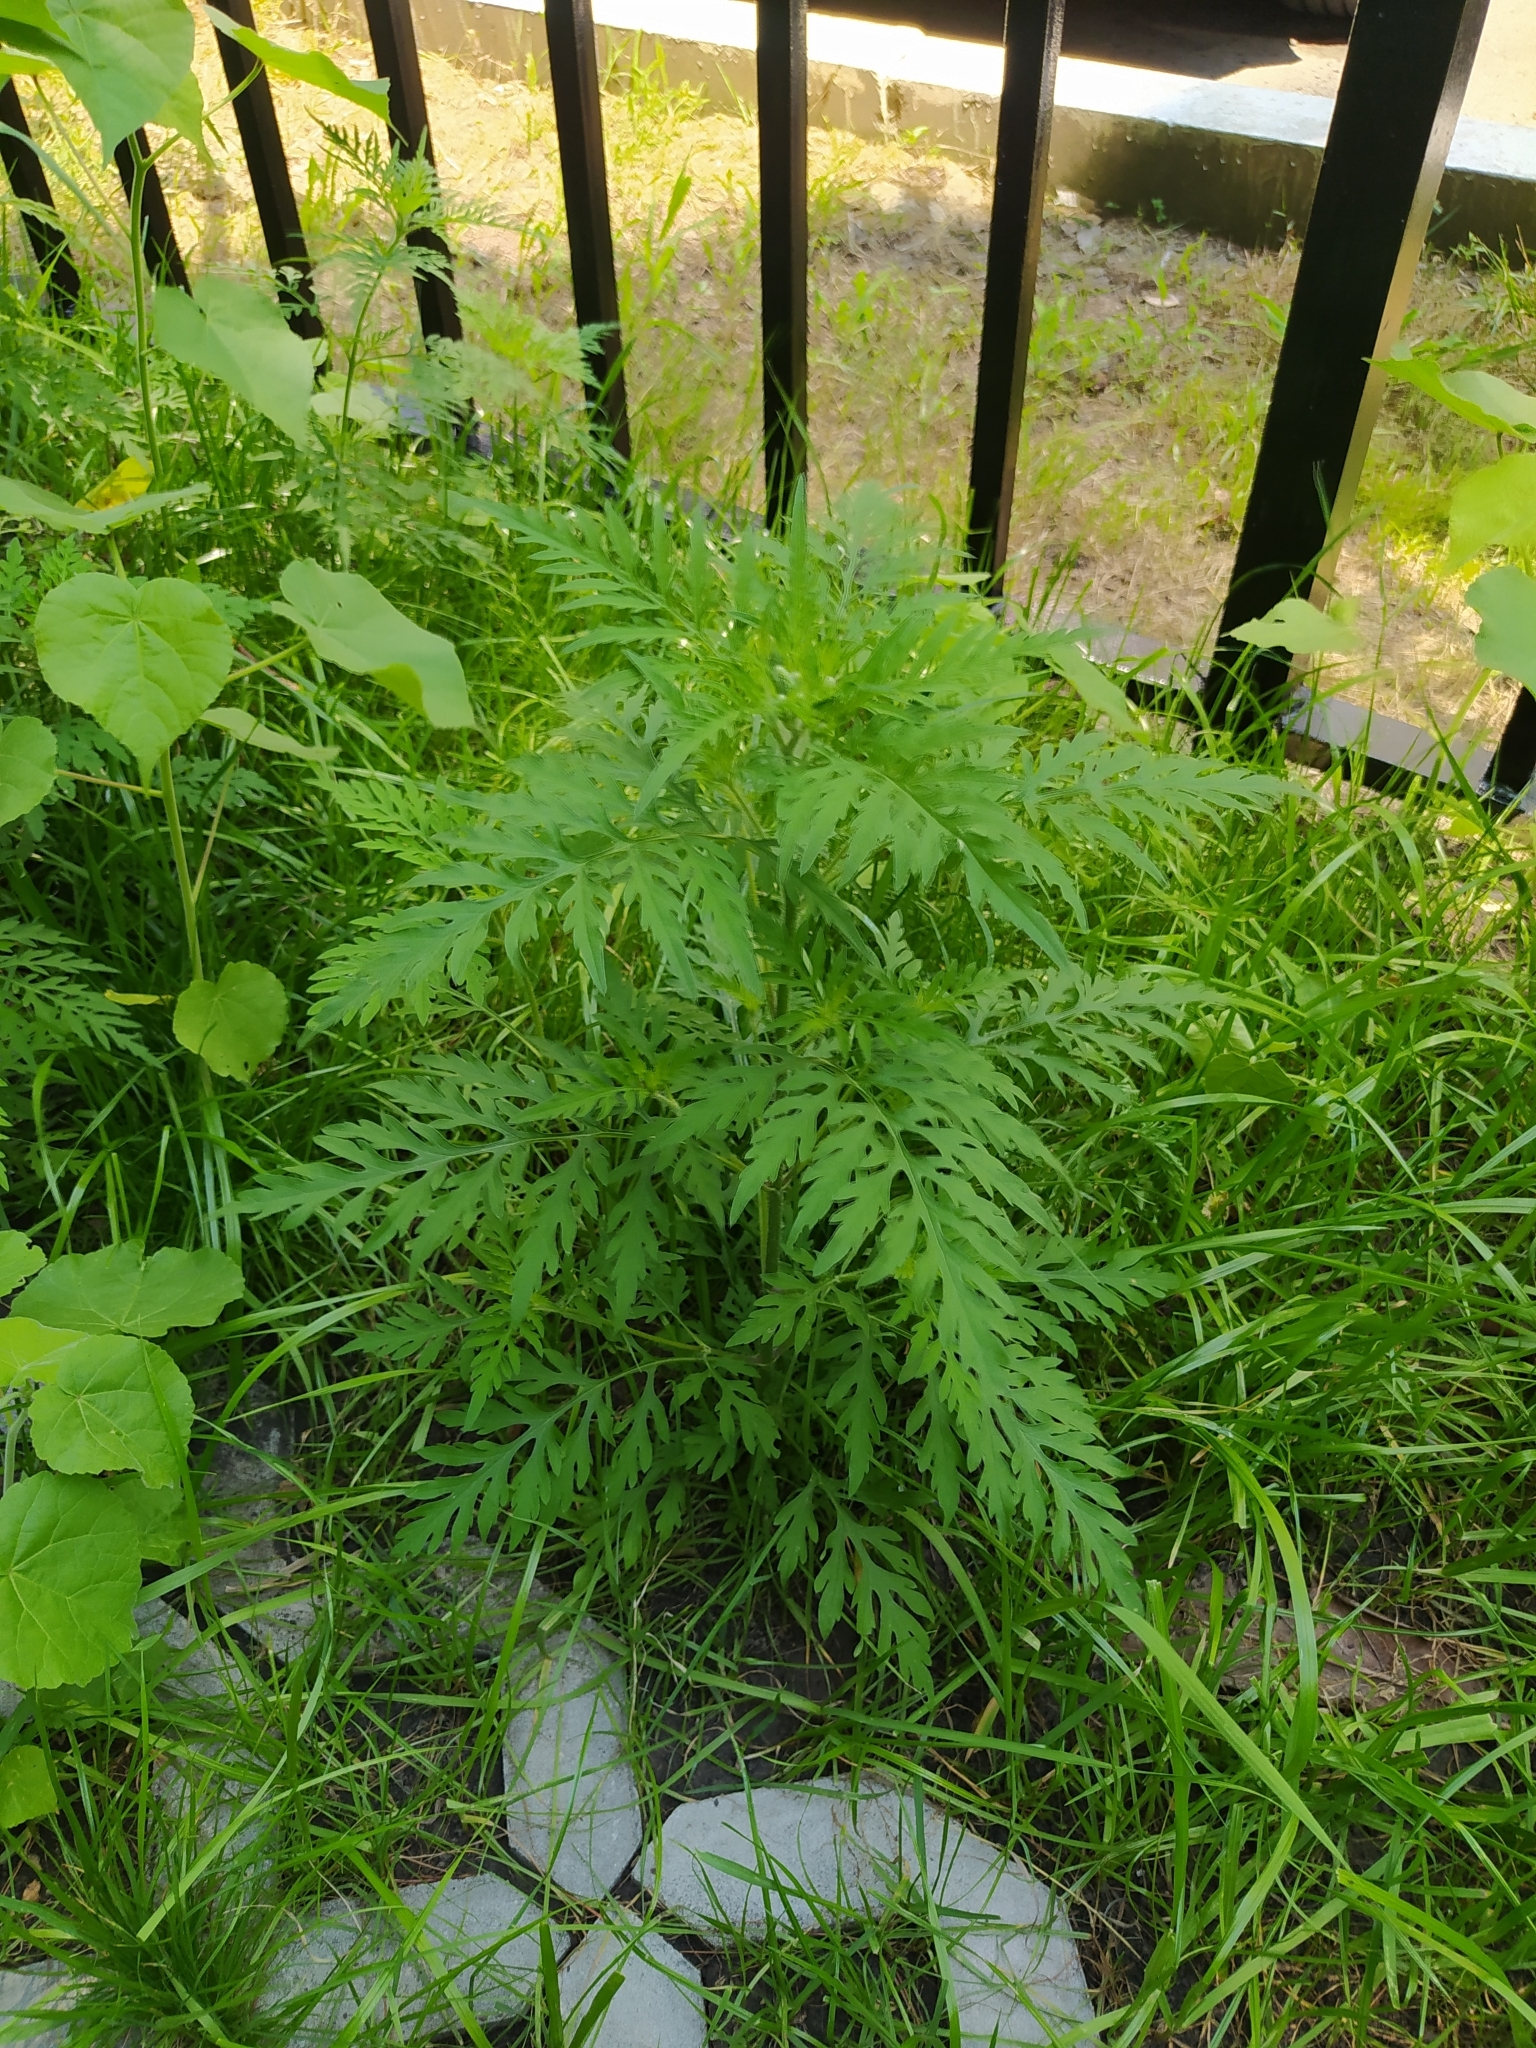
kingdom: Plantae
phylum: Tracheophyta
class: Magnoliopsida
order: Asterales
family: Asteraceae
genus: Ambrosia
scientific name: Ambrosia artemisiifolia
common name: Annual ragweed
